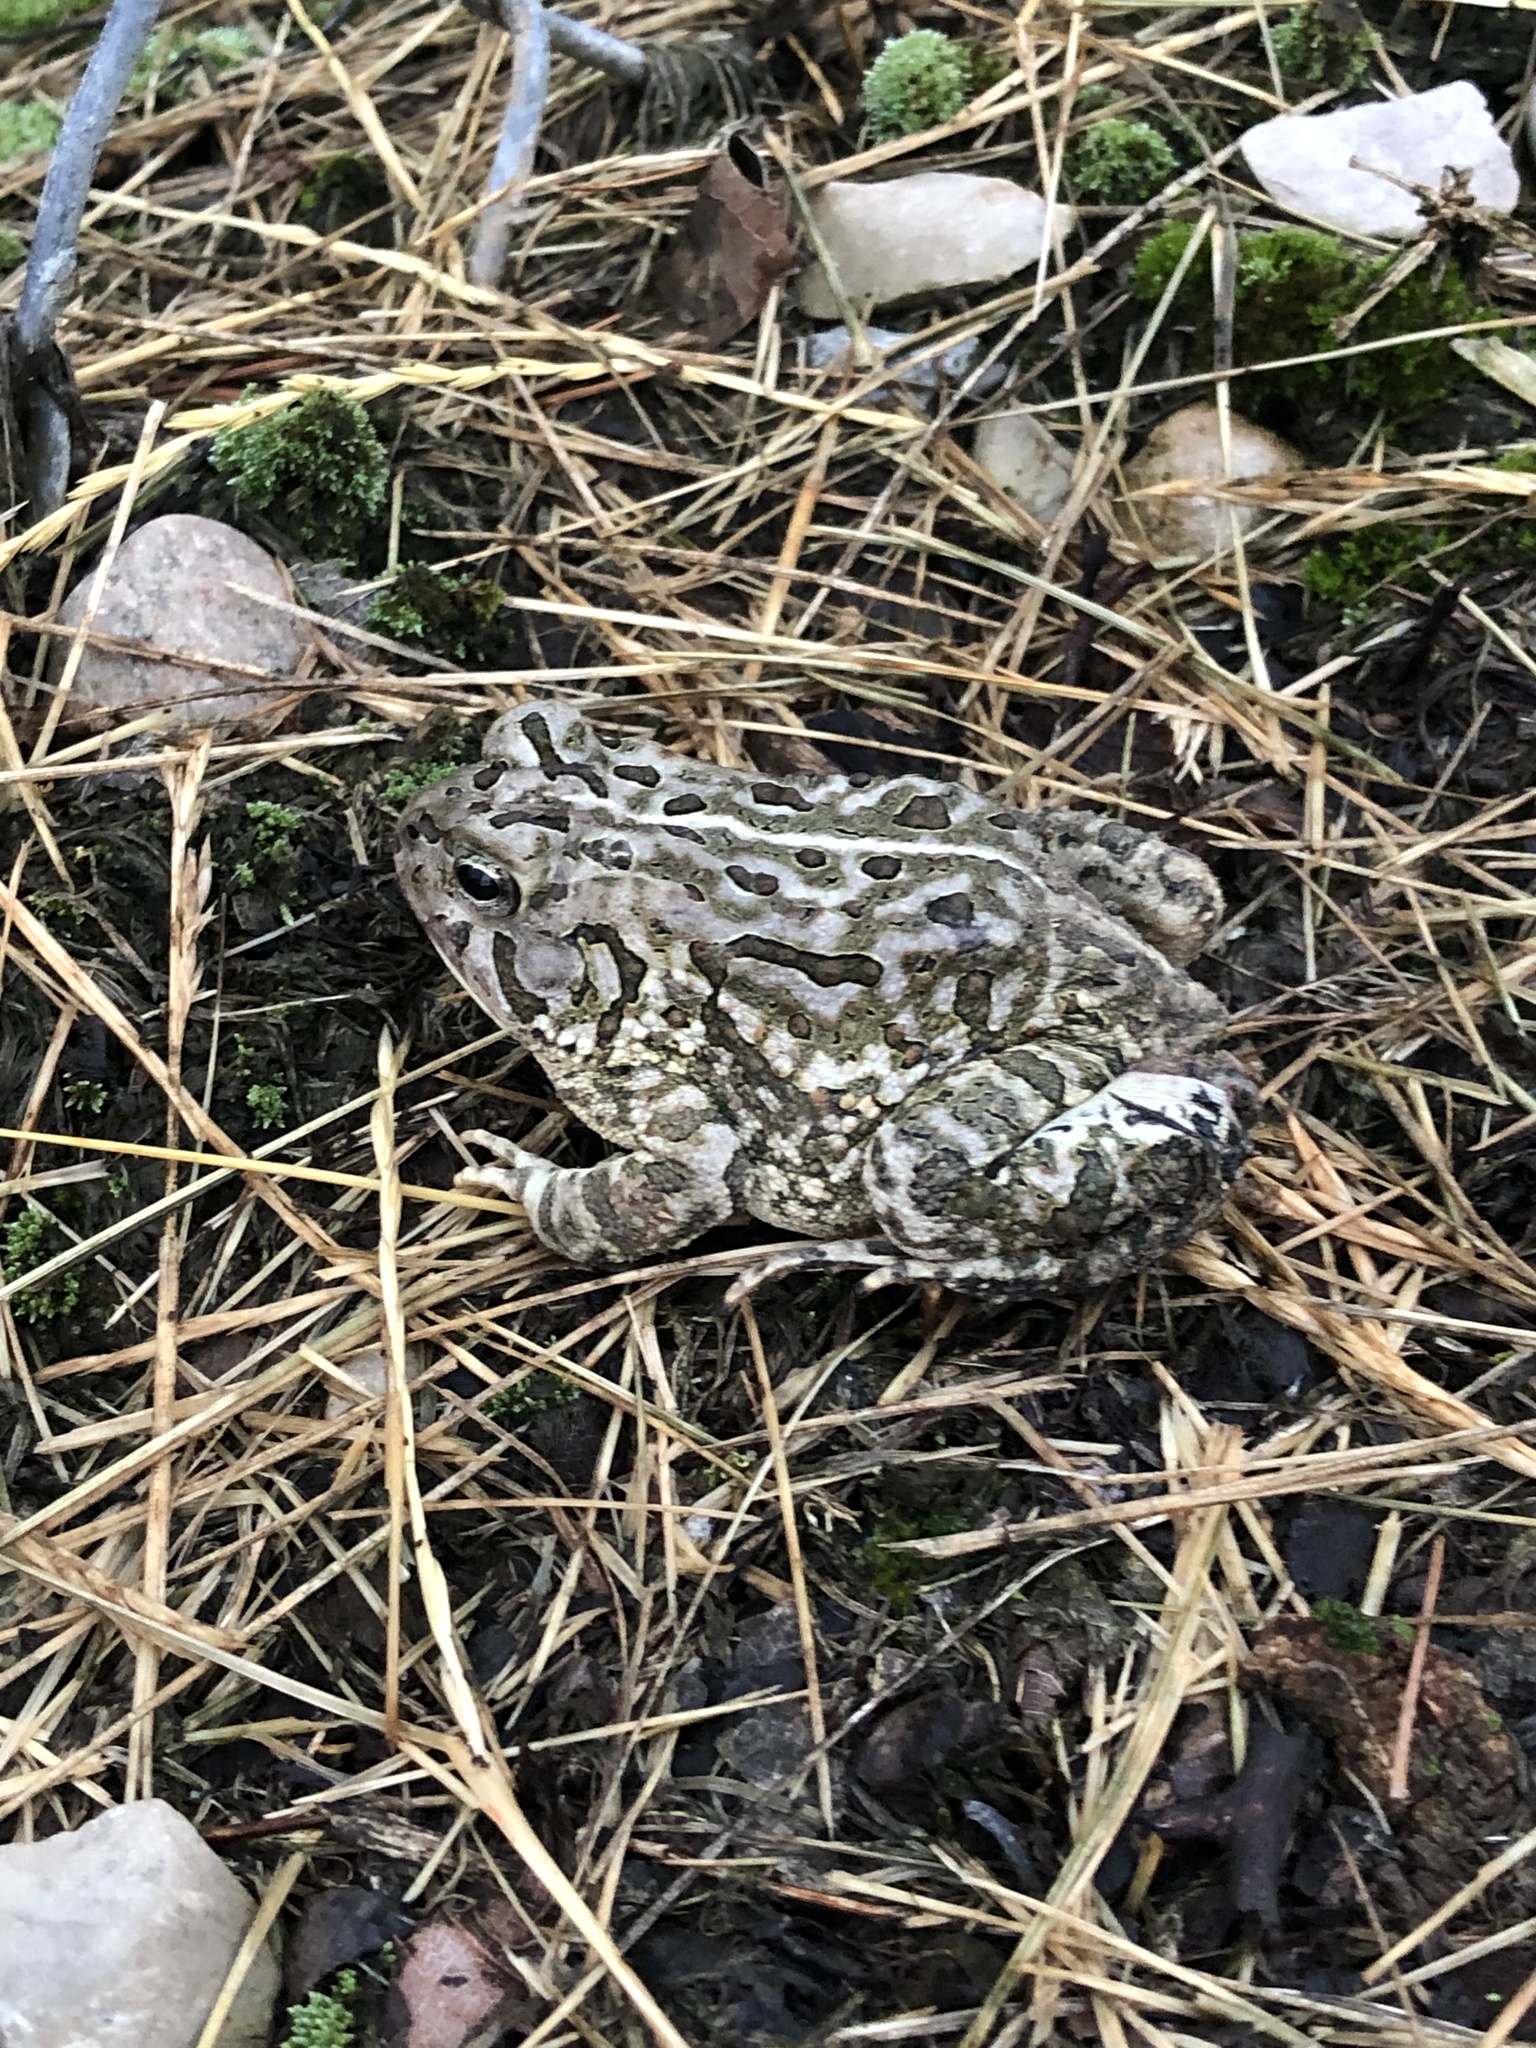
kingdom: Animalia
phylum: Chordata
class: Amphibia
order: Anura
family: Bufonidae
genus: Anaxyrus
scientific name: Anaxyrus fowleri
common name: Fowler's toad
